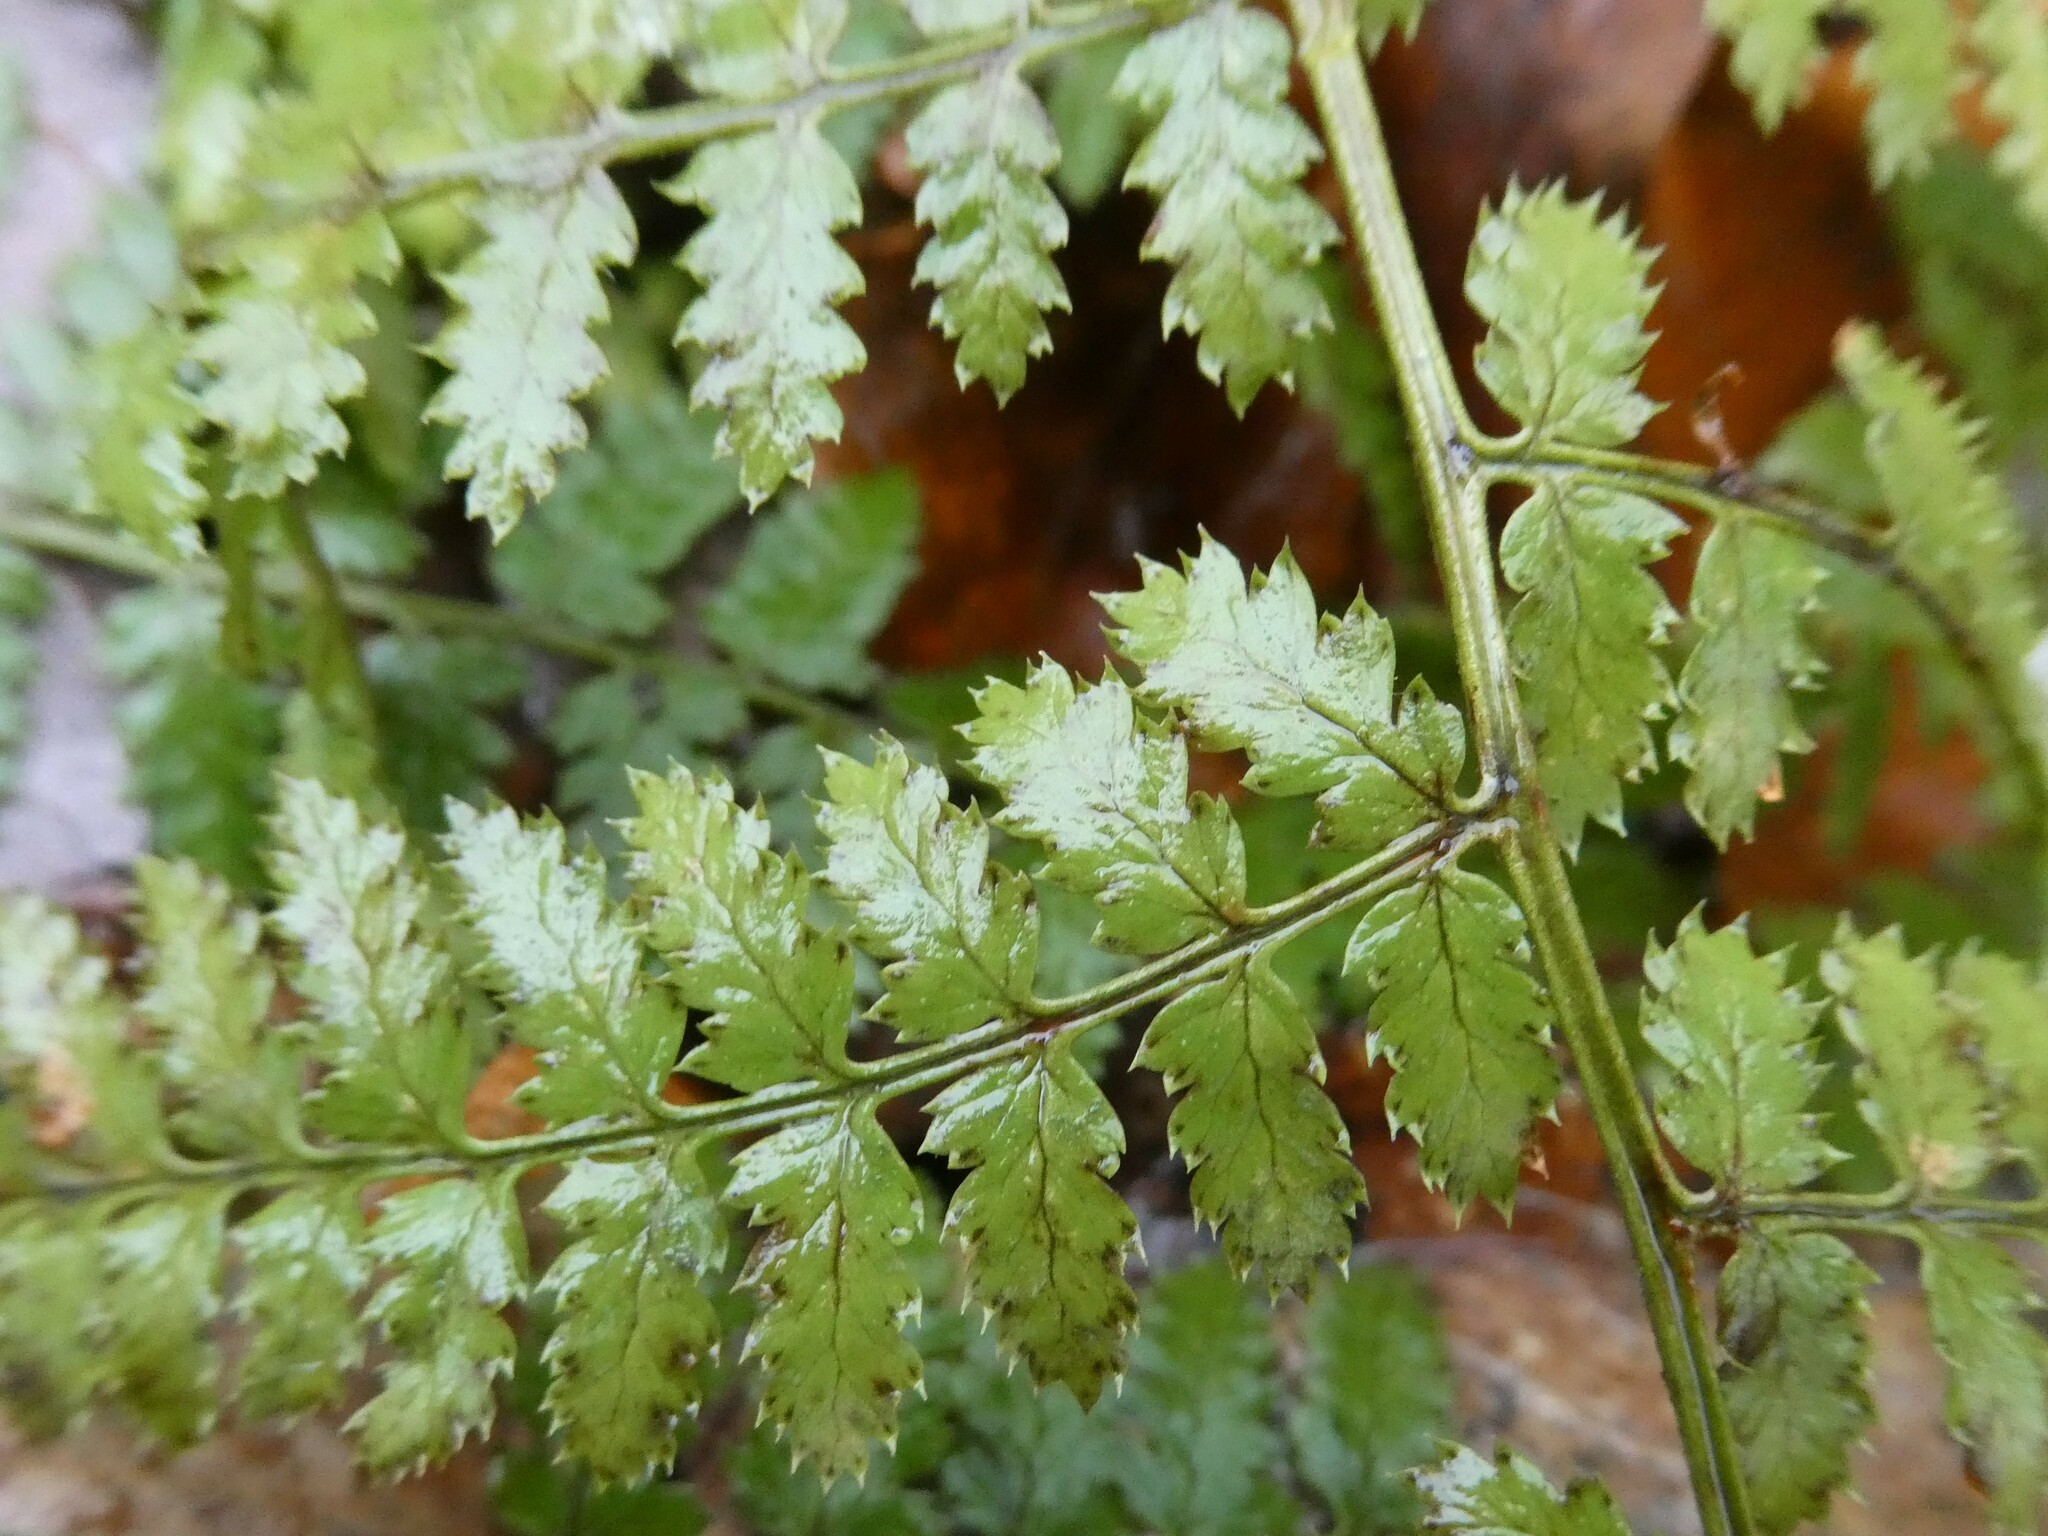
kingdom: Plantae
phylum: Tracheophyta
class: Polypodiopsida
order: Polypodiales
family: Dryopteridaceae
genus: Dryopteris
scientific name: Dryopteris intermedia
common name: Evergreen wood fern
